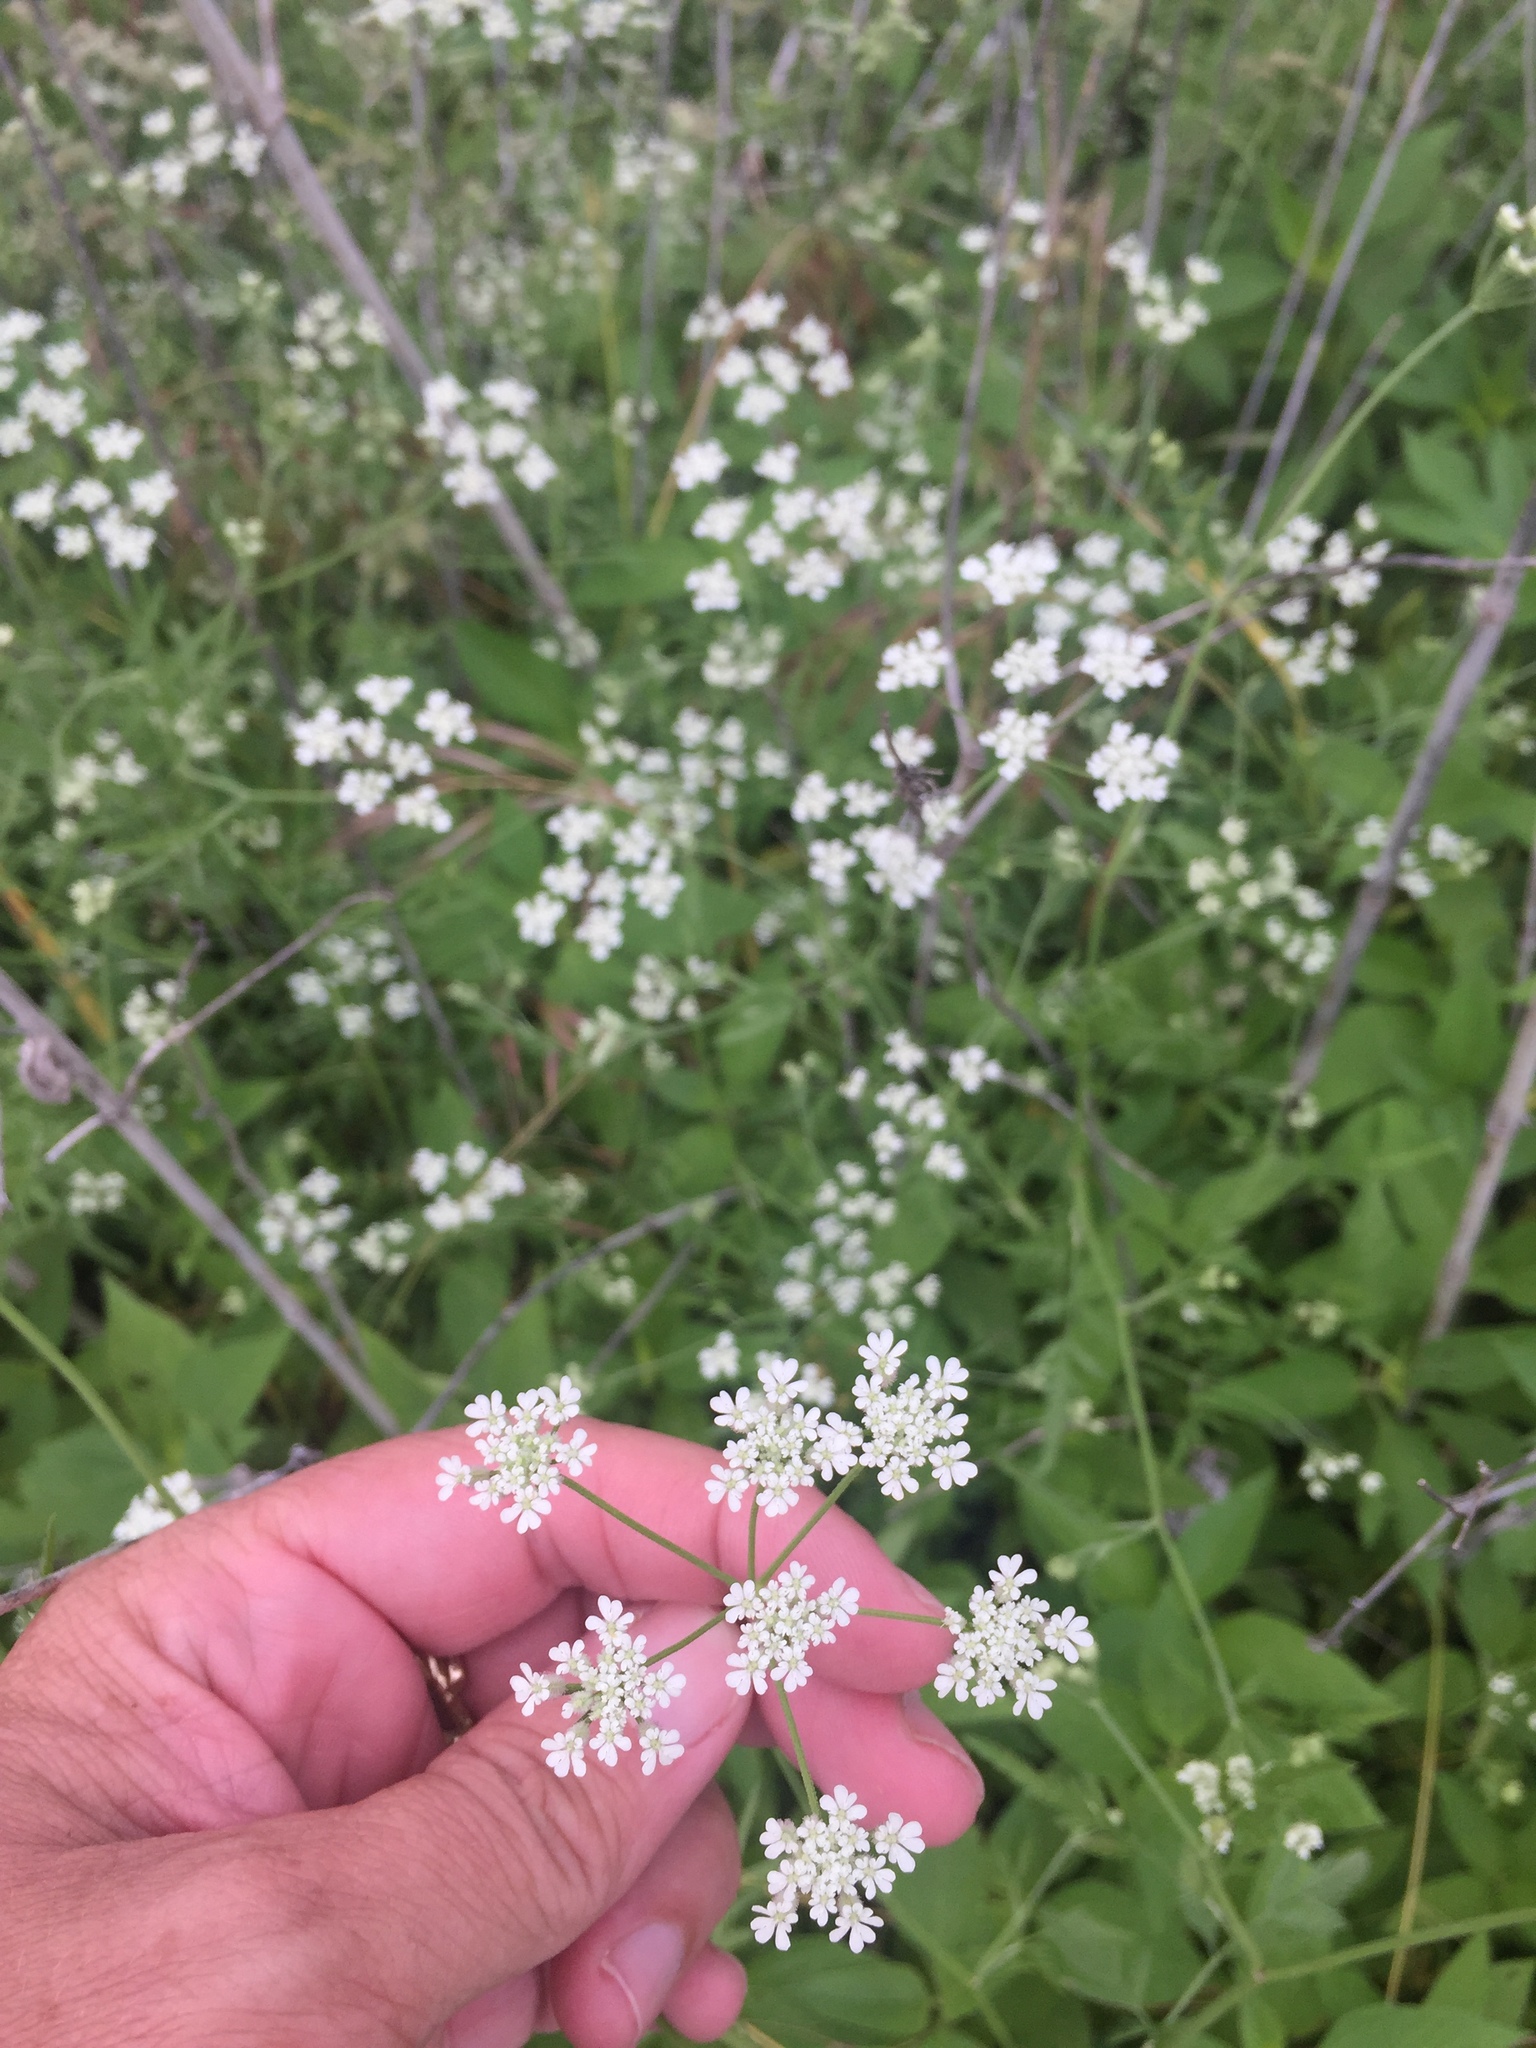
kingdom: Plantae
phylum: Tracheophyta
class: Magnoliopsida
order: Apiales
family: Apiaceae
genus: Torilis
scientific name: Torilis arvensis
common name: Spreading hedge-parsley
